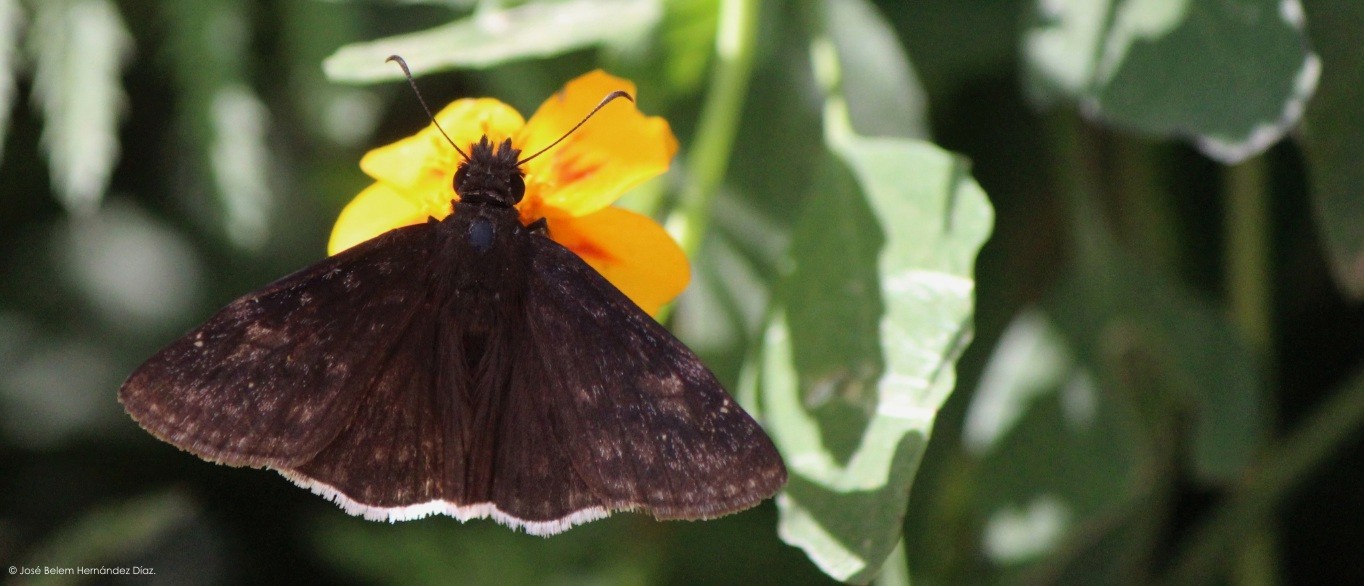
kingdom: Animalia
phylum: Arthropoda
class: Insecta
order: Lepidoptera
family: Hesperiidae
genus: Erynnis
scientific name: Erynnis funeralis
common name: Funereal duskywing
